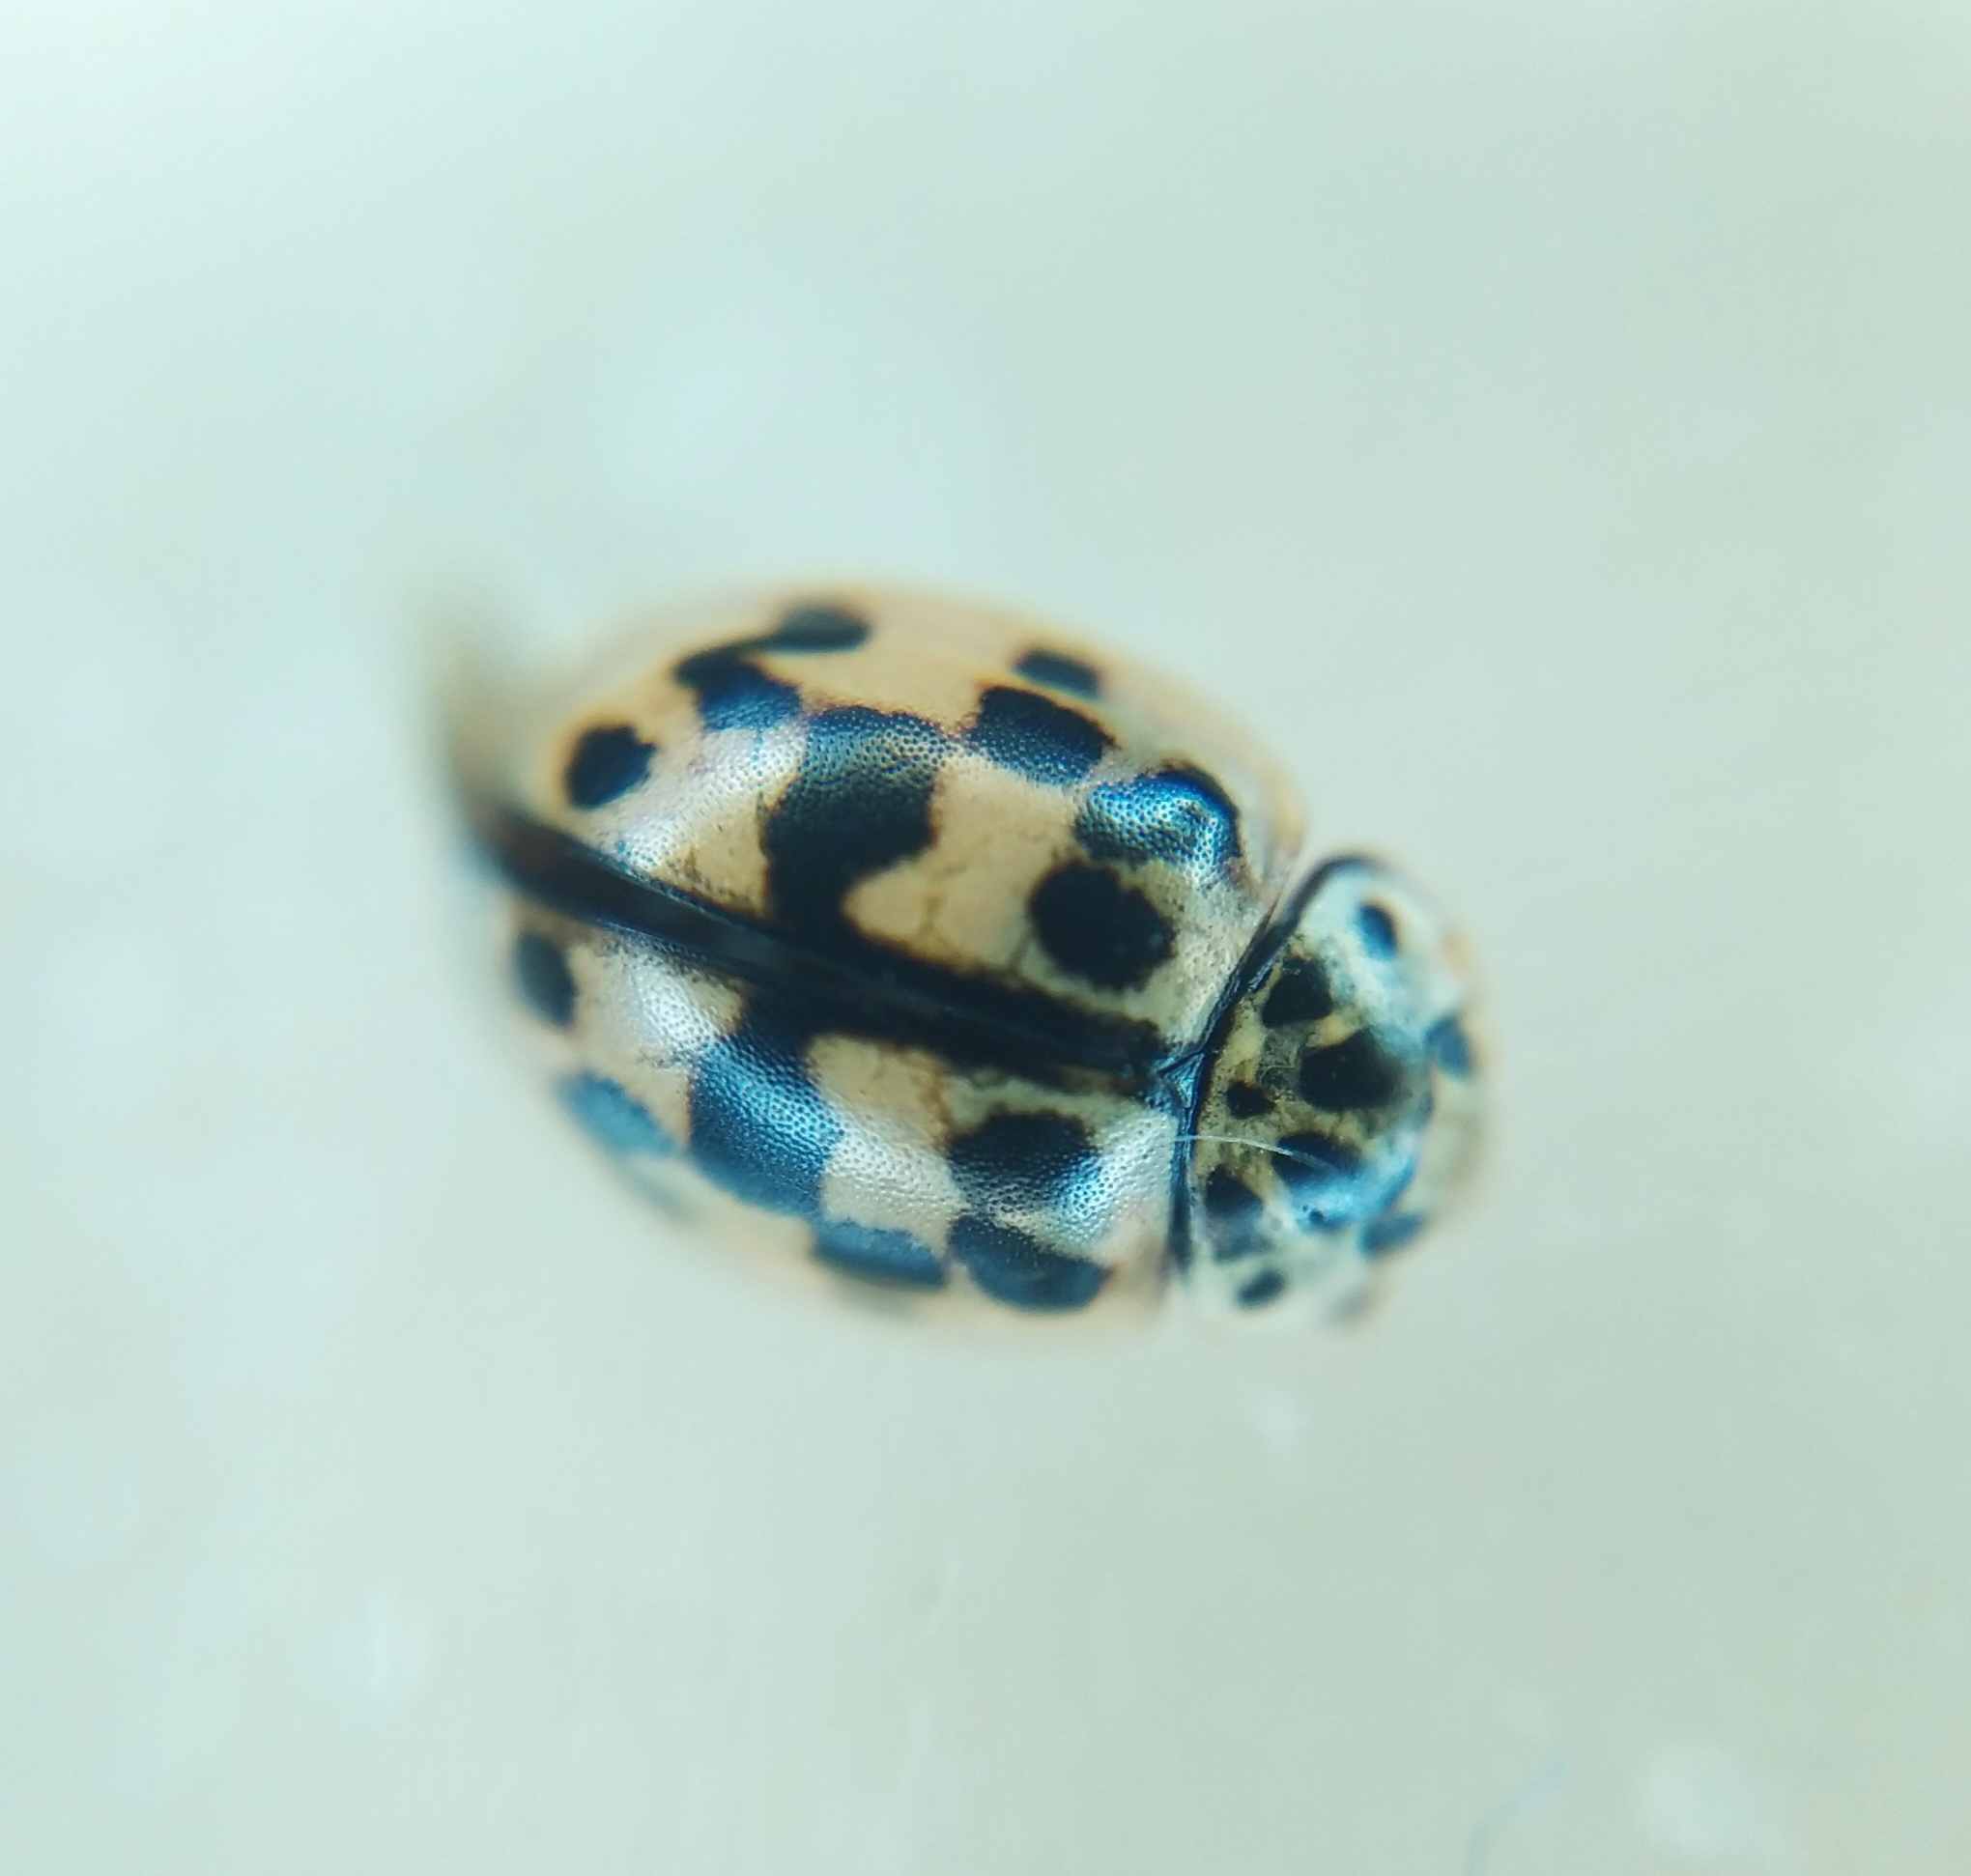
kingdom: Animalia
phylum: Arthropoda
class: Insecta
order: Coleoptera
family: Coccinellidae
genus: Oenopia
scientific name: Oenopia conglobata
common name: Ladybird beetle
